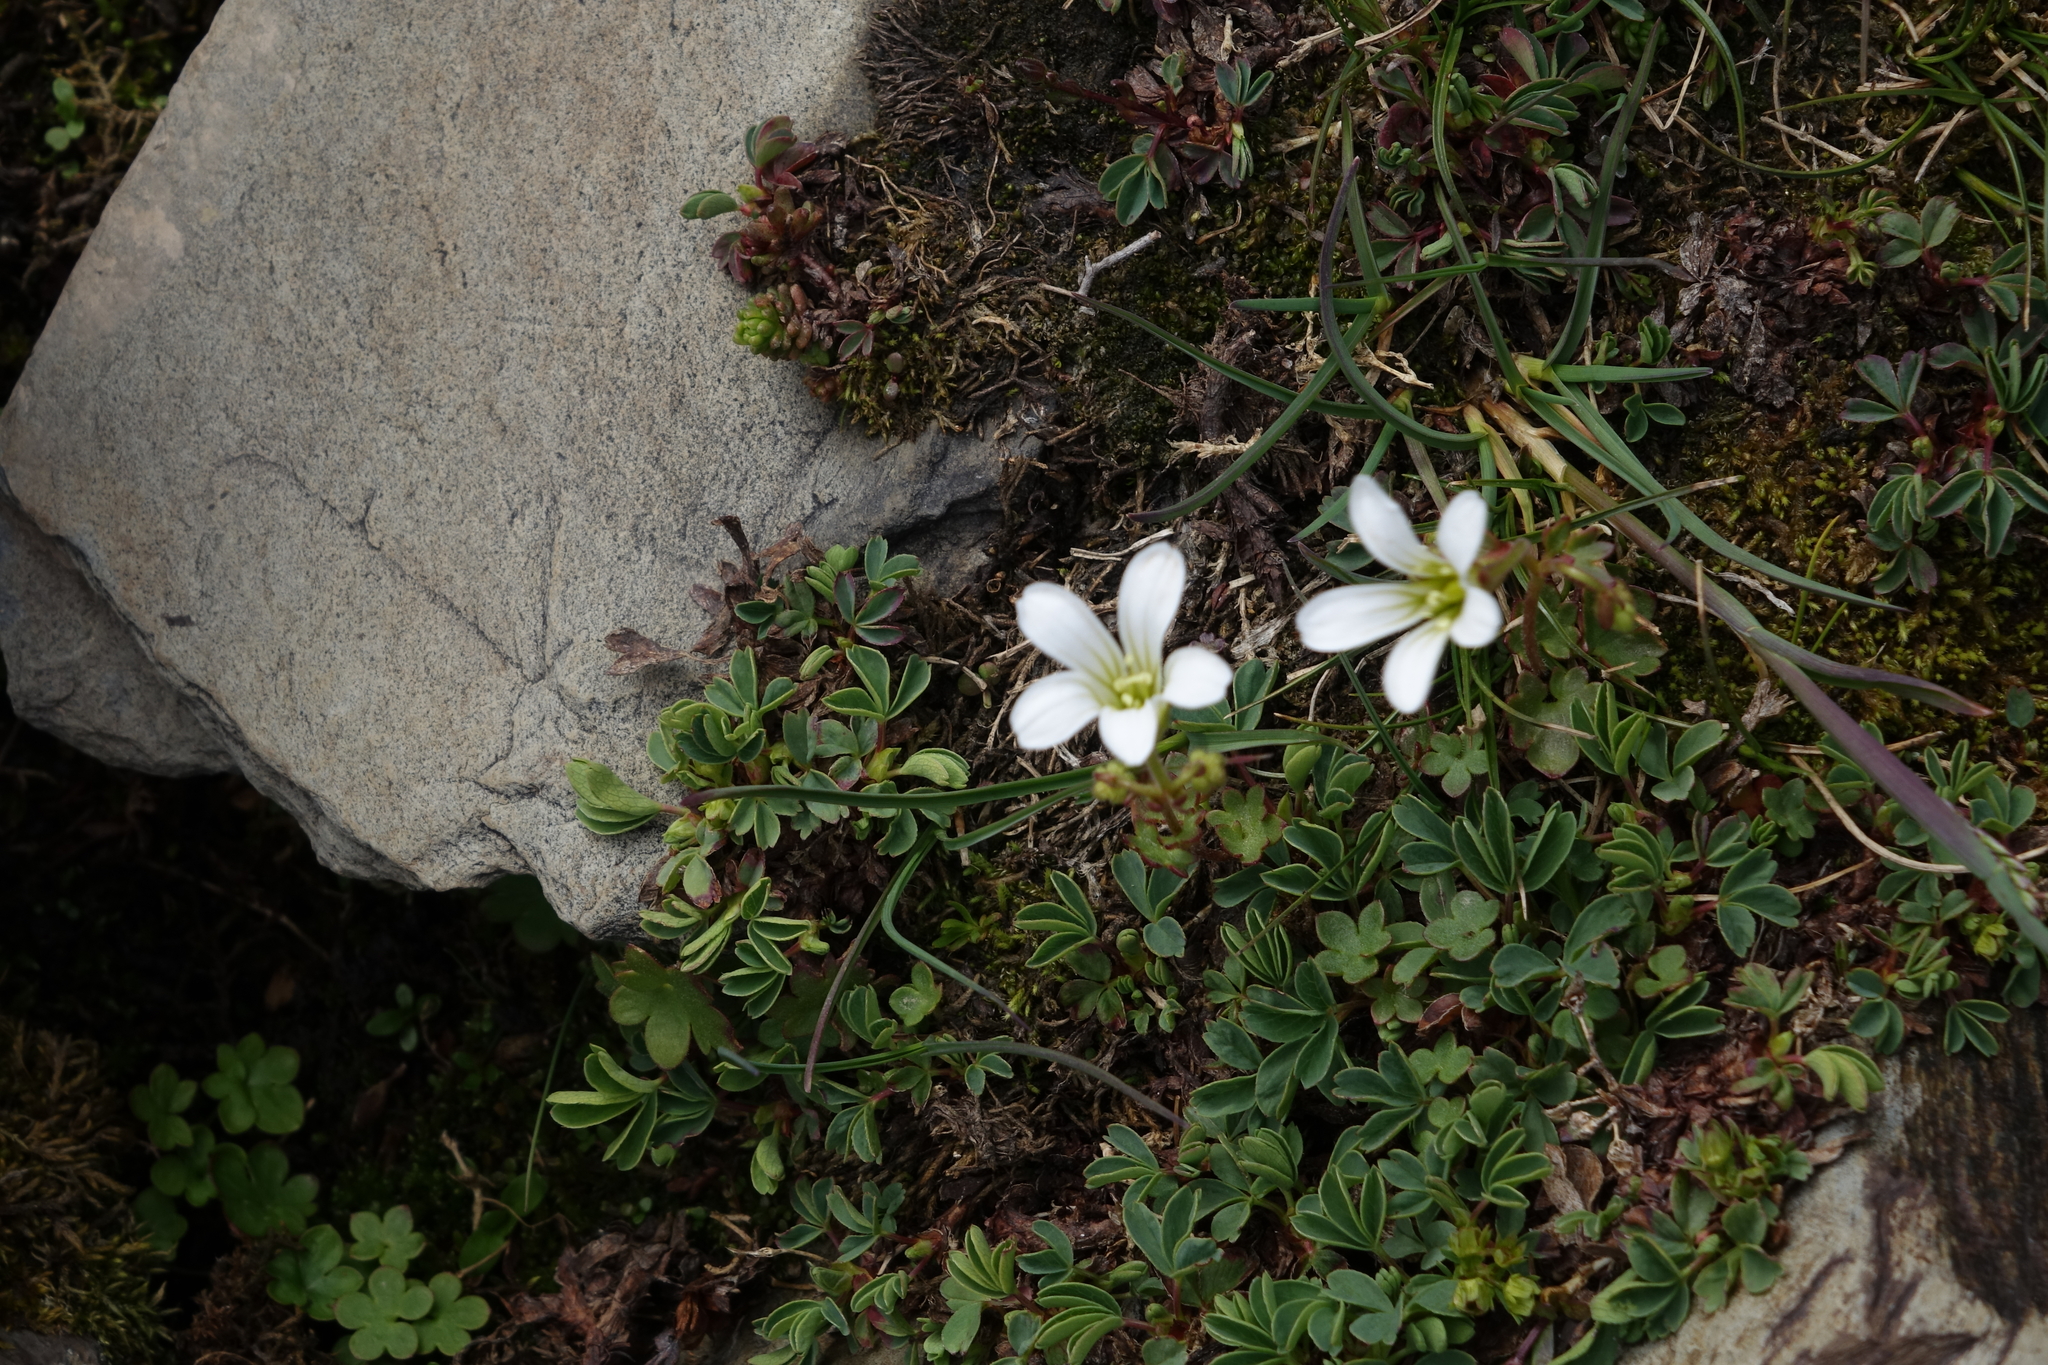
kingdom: Plantae
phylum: Tracheophyta
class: Magnoliopsida
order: Saxifragales
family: Saxifragaceae
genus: Saxifraga
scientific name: Saxifraga sibirica
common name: Siberian saxifrage
